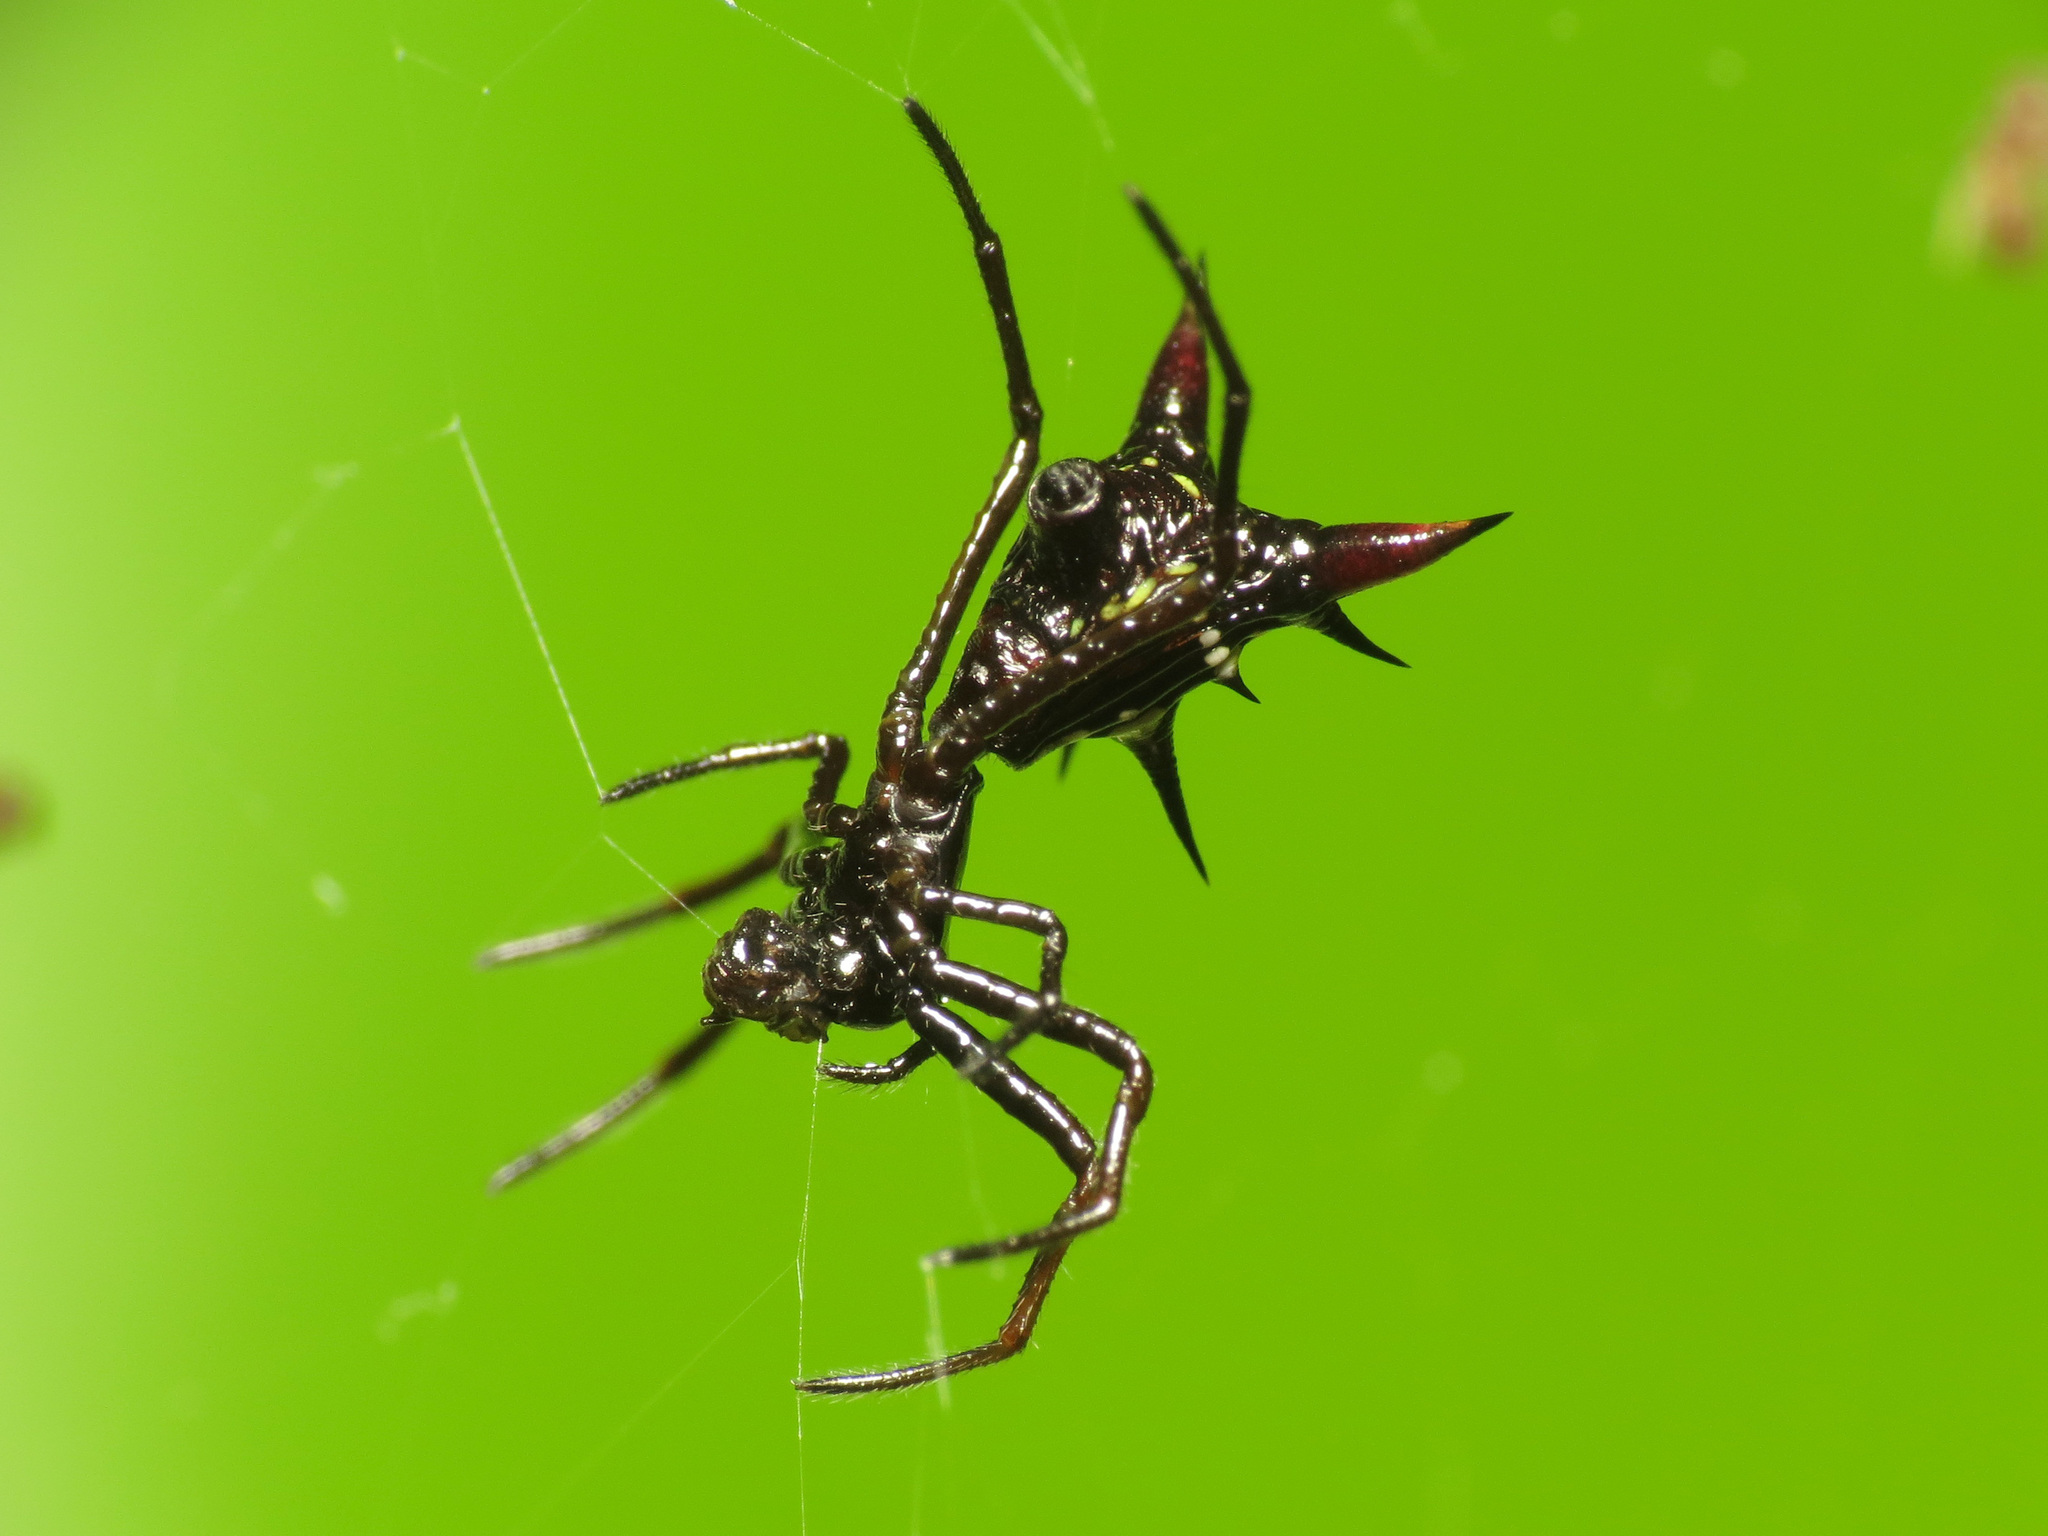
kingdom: Animalia
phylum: Arthropoda
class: Arachnida
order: Araneae
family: Araneidae
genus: Micrathena
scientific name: Micrathena
